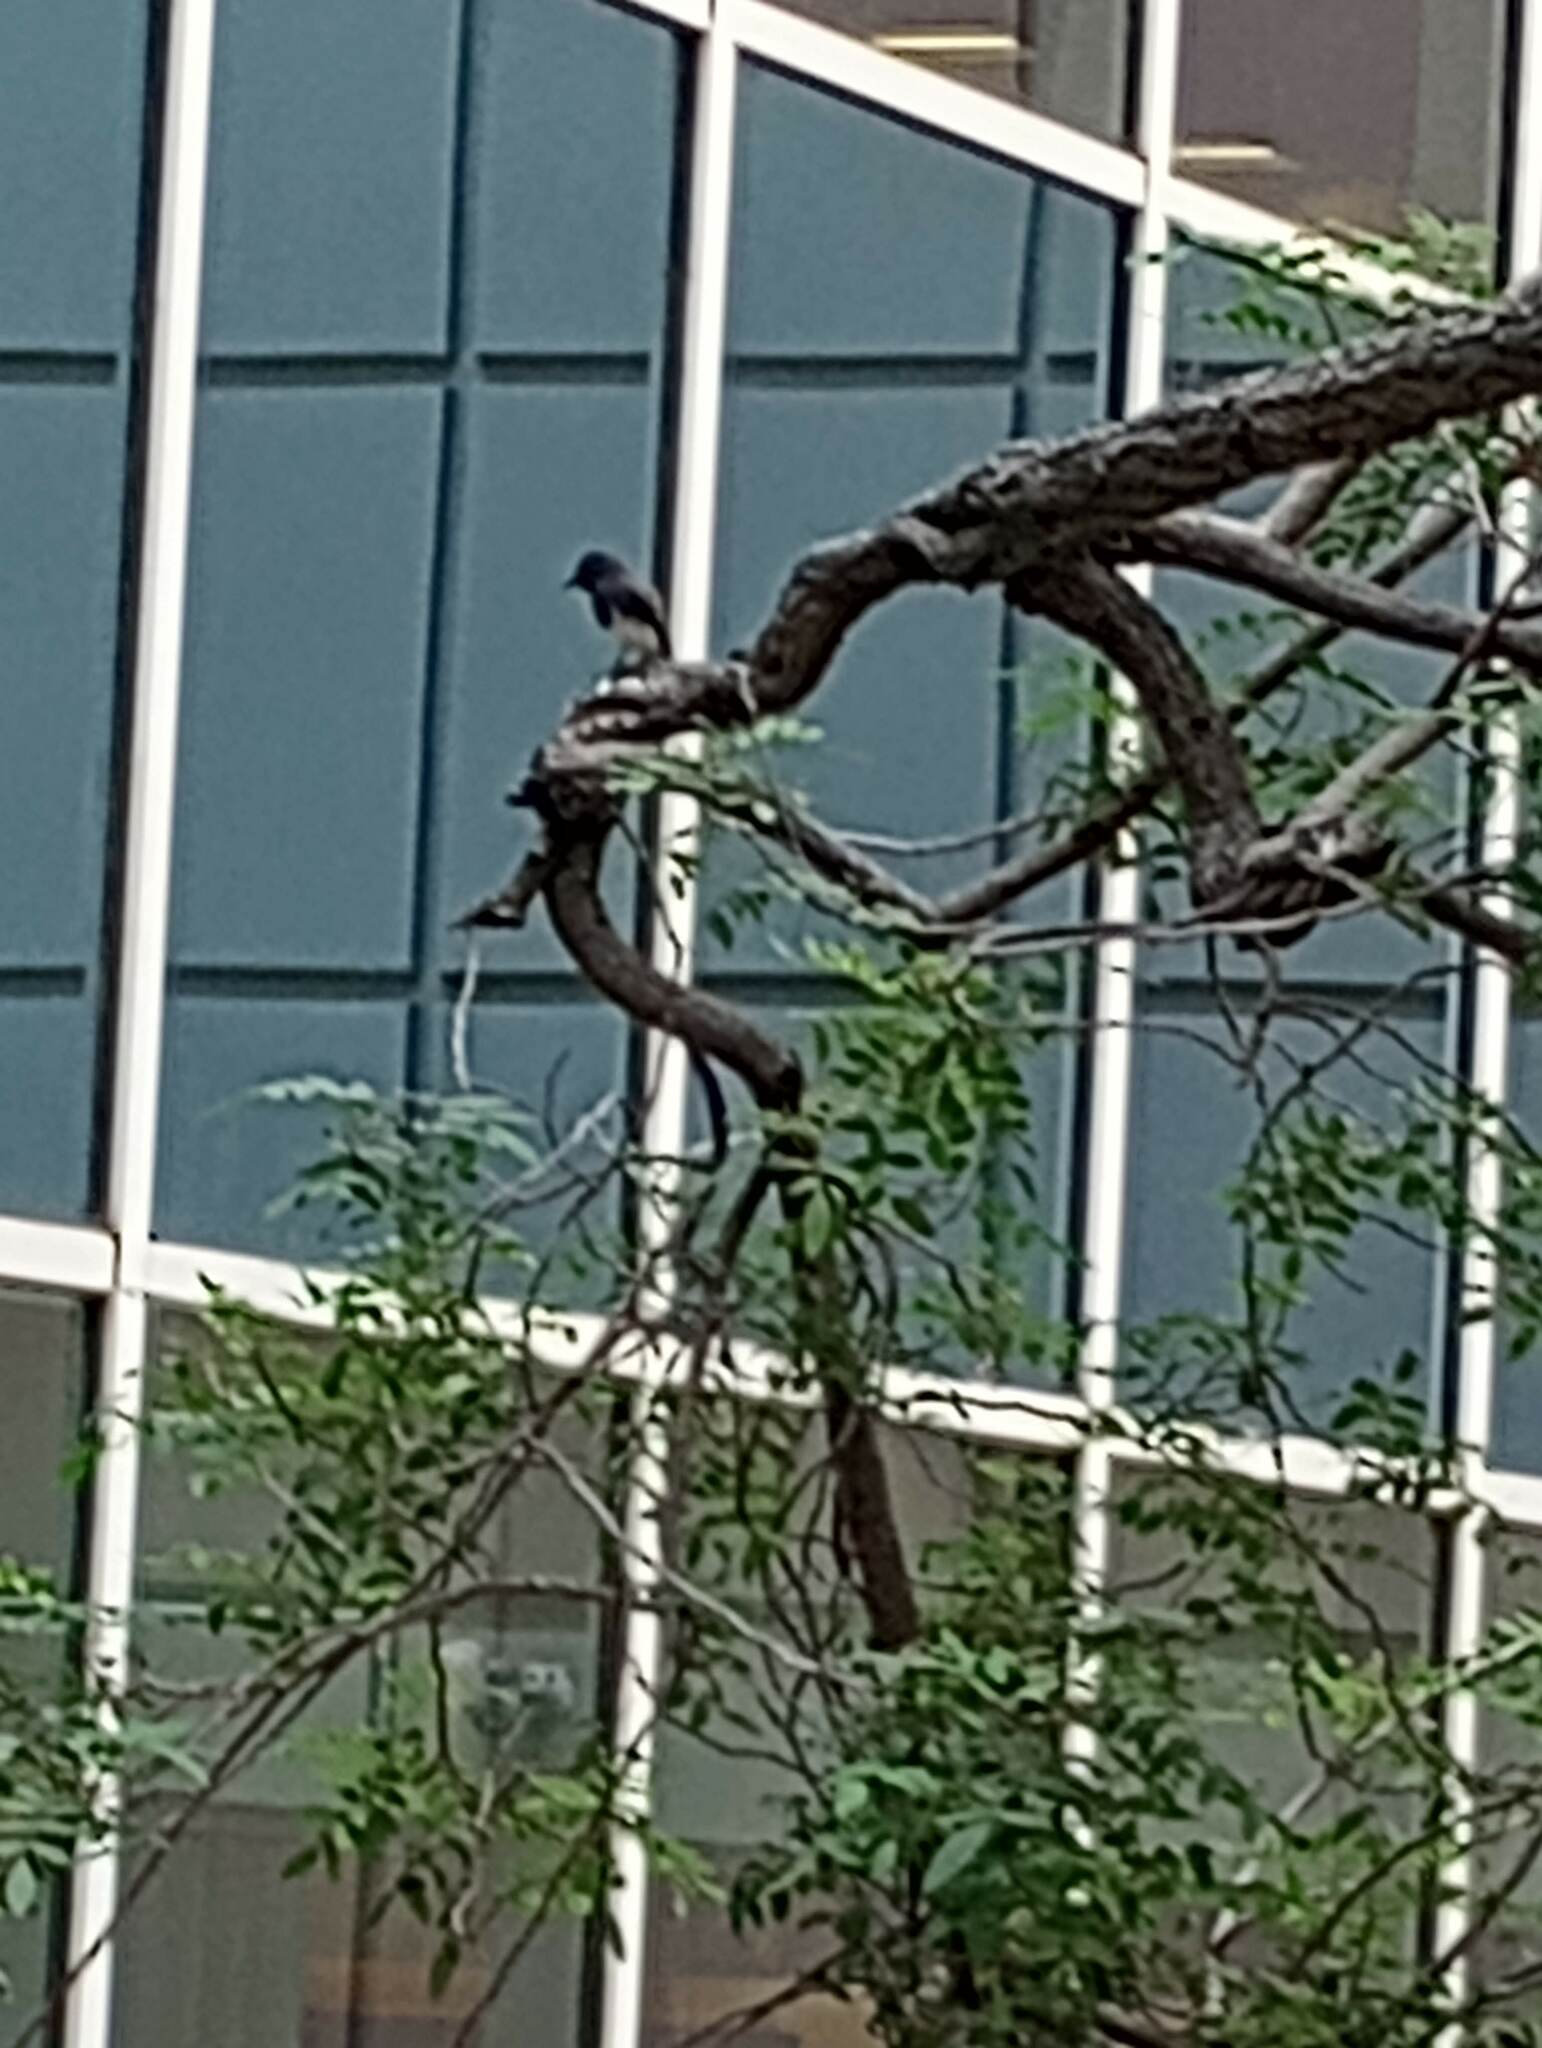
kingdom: Animalia
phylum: Chordata
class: Aves
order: Passeriformes
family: Tyrannidae
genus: Sayornis
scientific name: Sayornis nigricans
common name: Black phoebe
